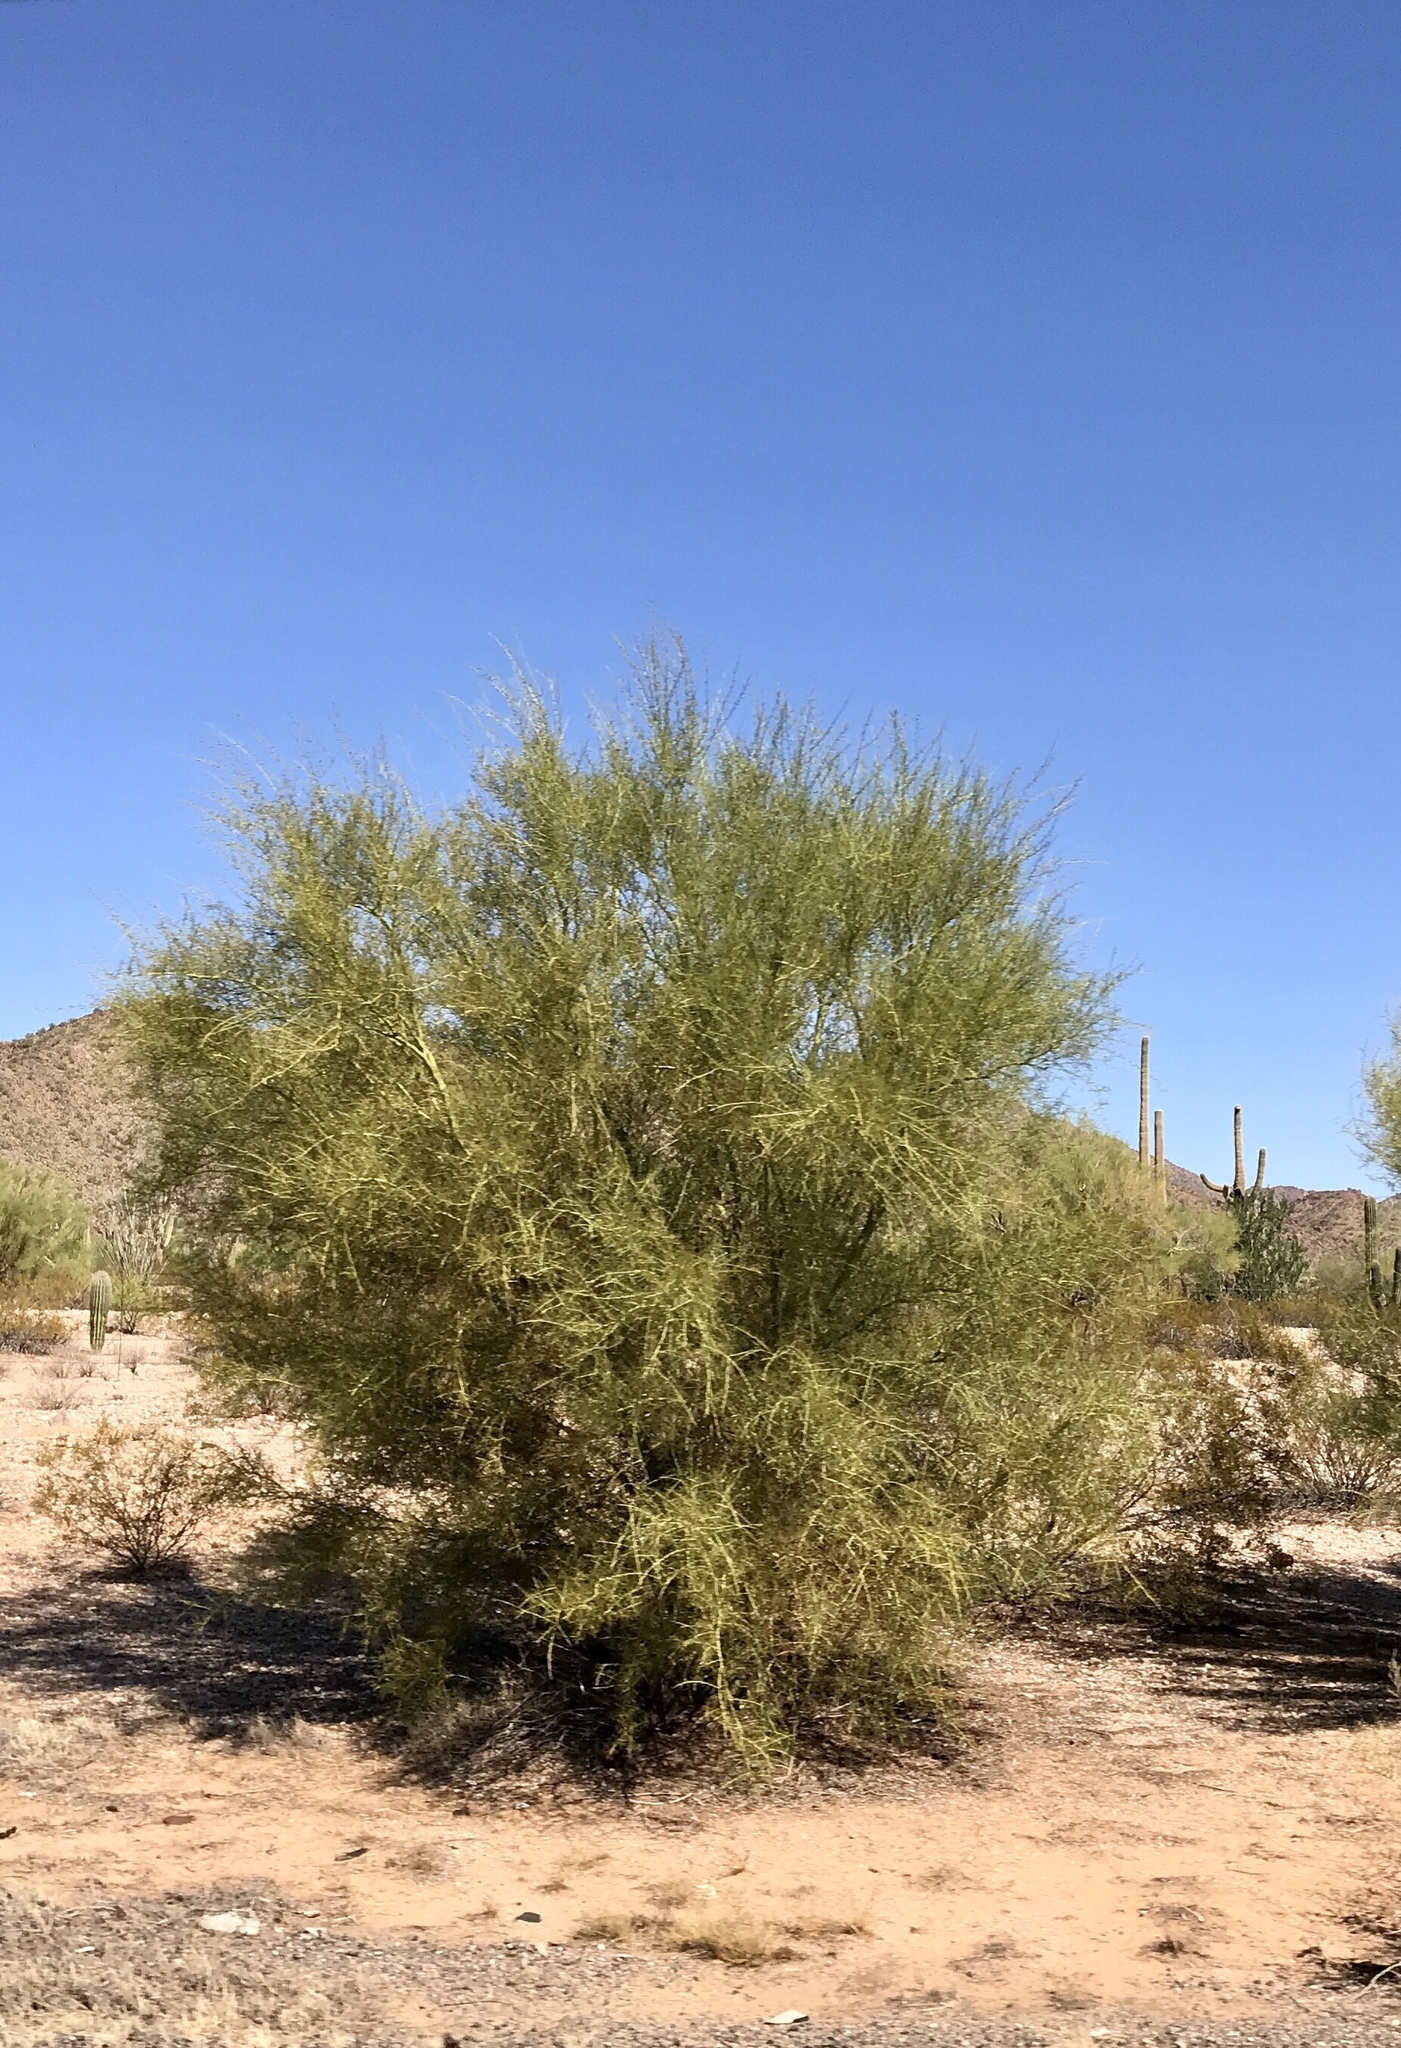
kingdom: Plantae
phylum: Tracheophyta
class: Magnoliopsida
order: Fabales
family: Fabaceae
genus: Parkinsonia
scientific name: Parkinsonia florida
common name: Blue paloverde
